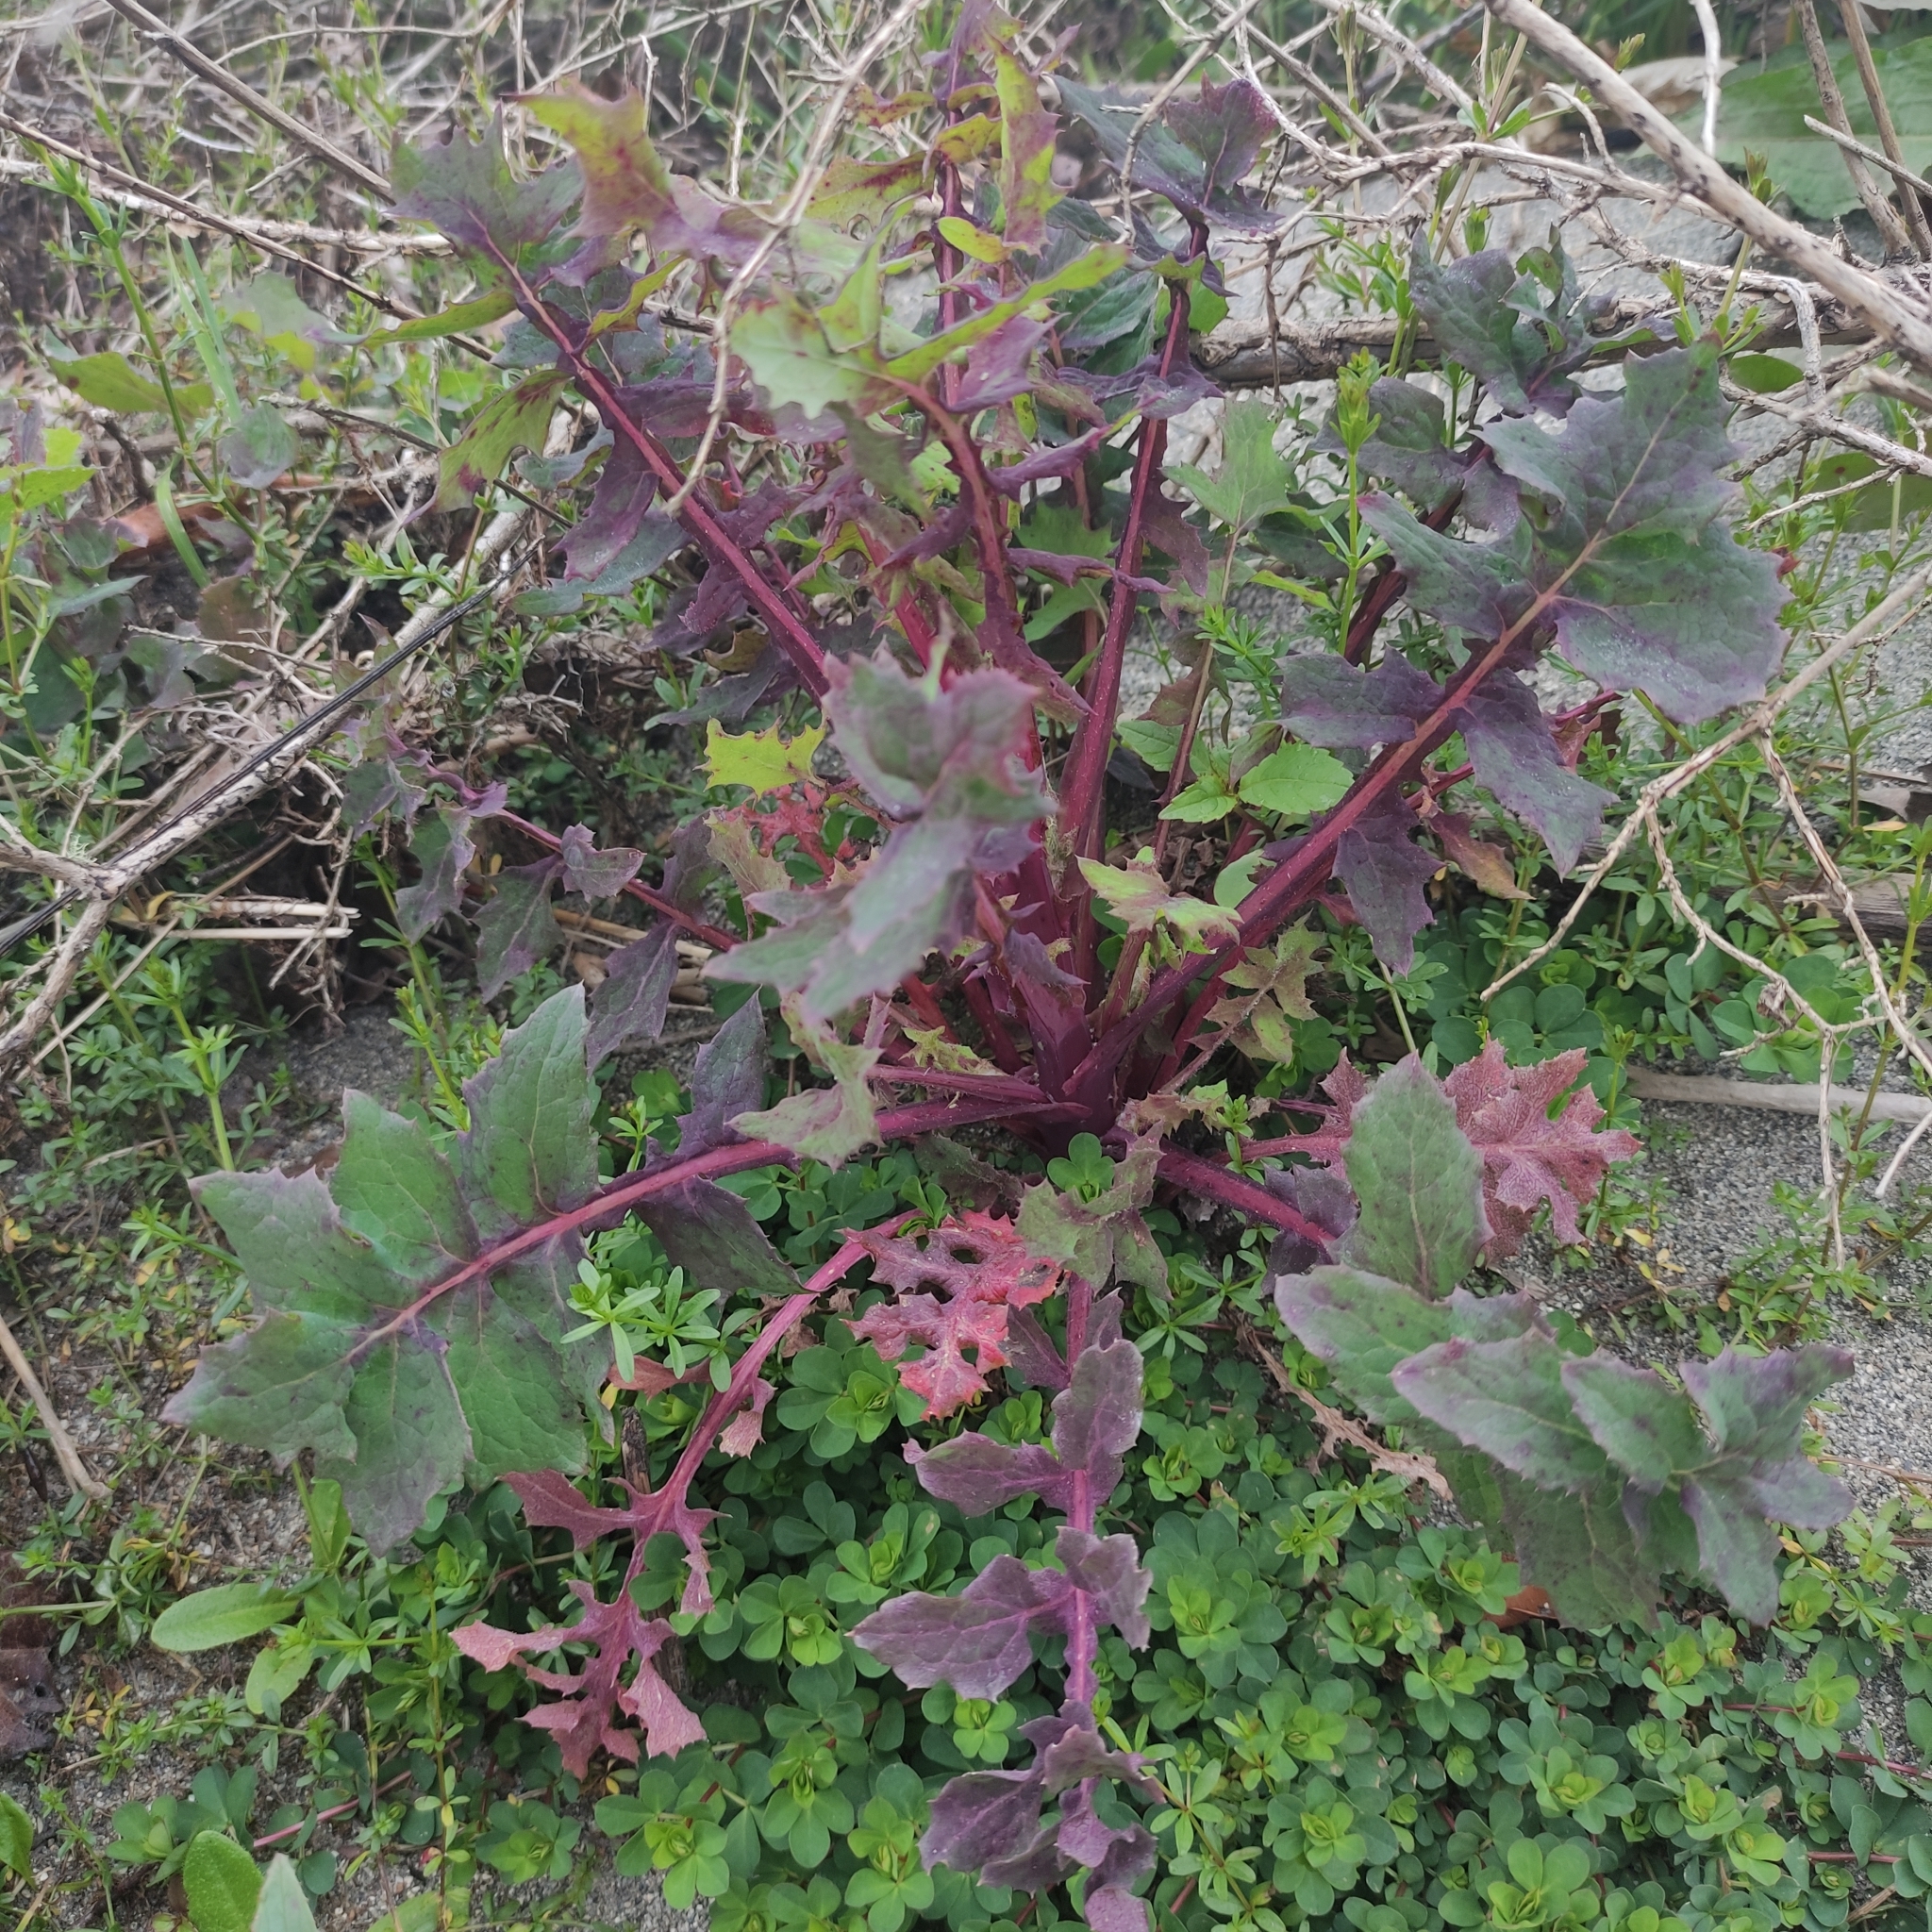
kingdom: Plantae
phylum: Tracheophyta
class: Magnoliopsida
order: Asterales
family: Asteraceae
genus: Sonchus
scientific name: Sonchus oleraceus
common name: Common sowthistle
